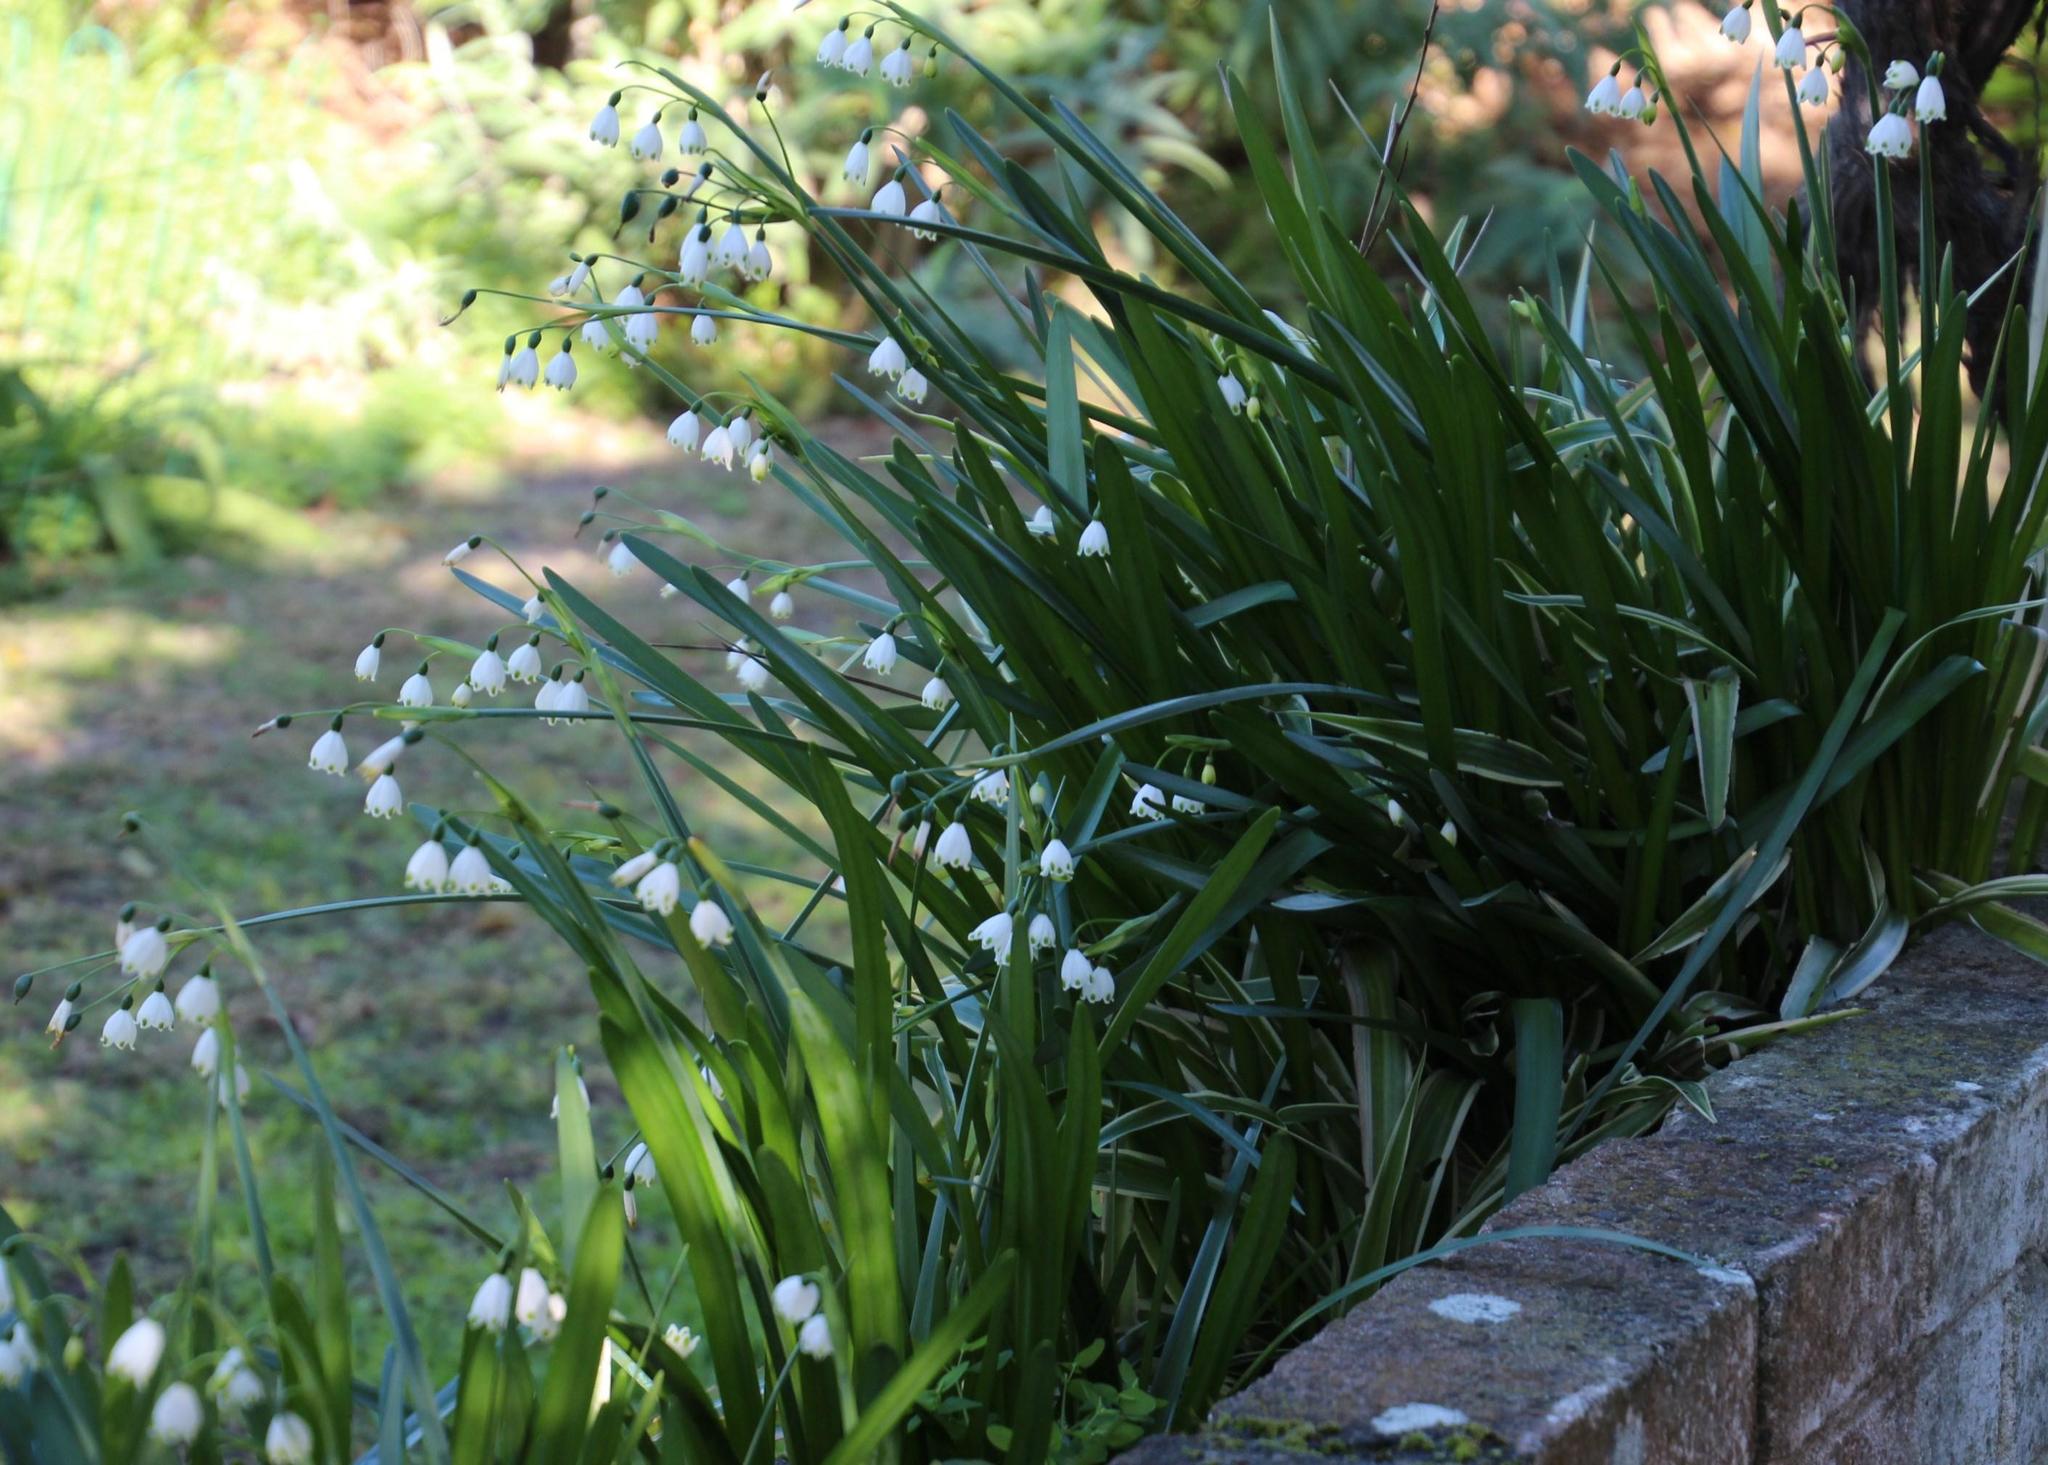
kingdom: Plantae
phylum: Tracheophyta
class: Liliopsida
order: Asparagales
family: Amaryllidaceae
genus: Leucojum
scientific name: Leucojum aestivum
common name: Summer snowflake
